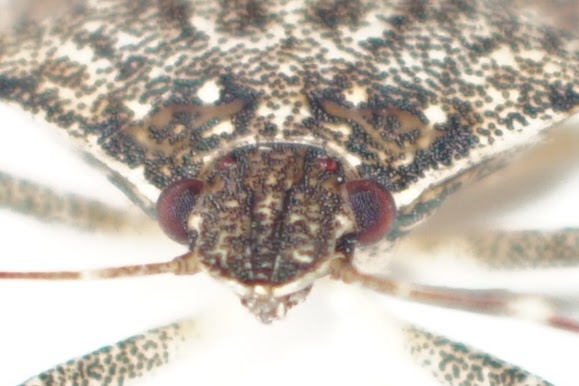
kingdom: Animalia
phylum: Arthropoda
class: Insecta
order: Hemiptera
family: Pentatomidae
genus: Halyomorpha
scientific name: Halyomorpha halys
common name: Brown marmorated stink bug
